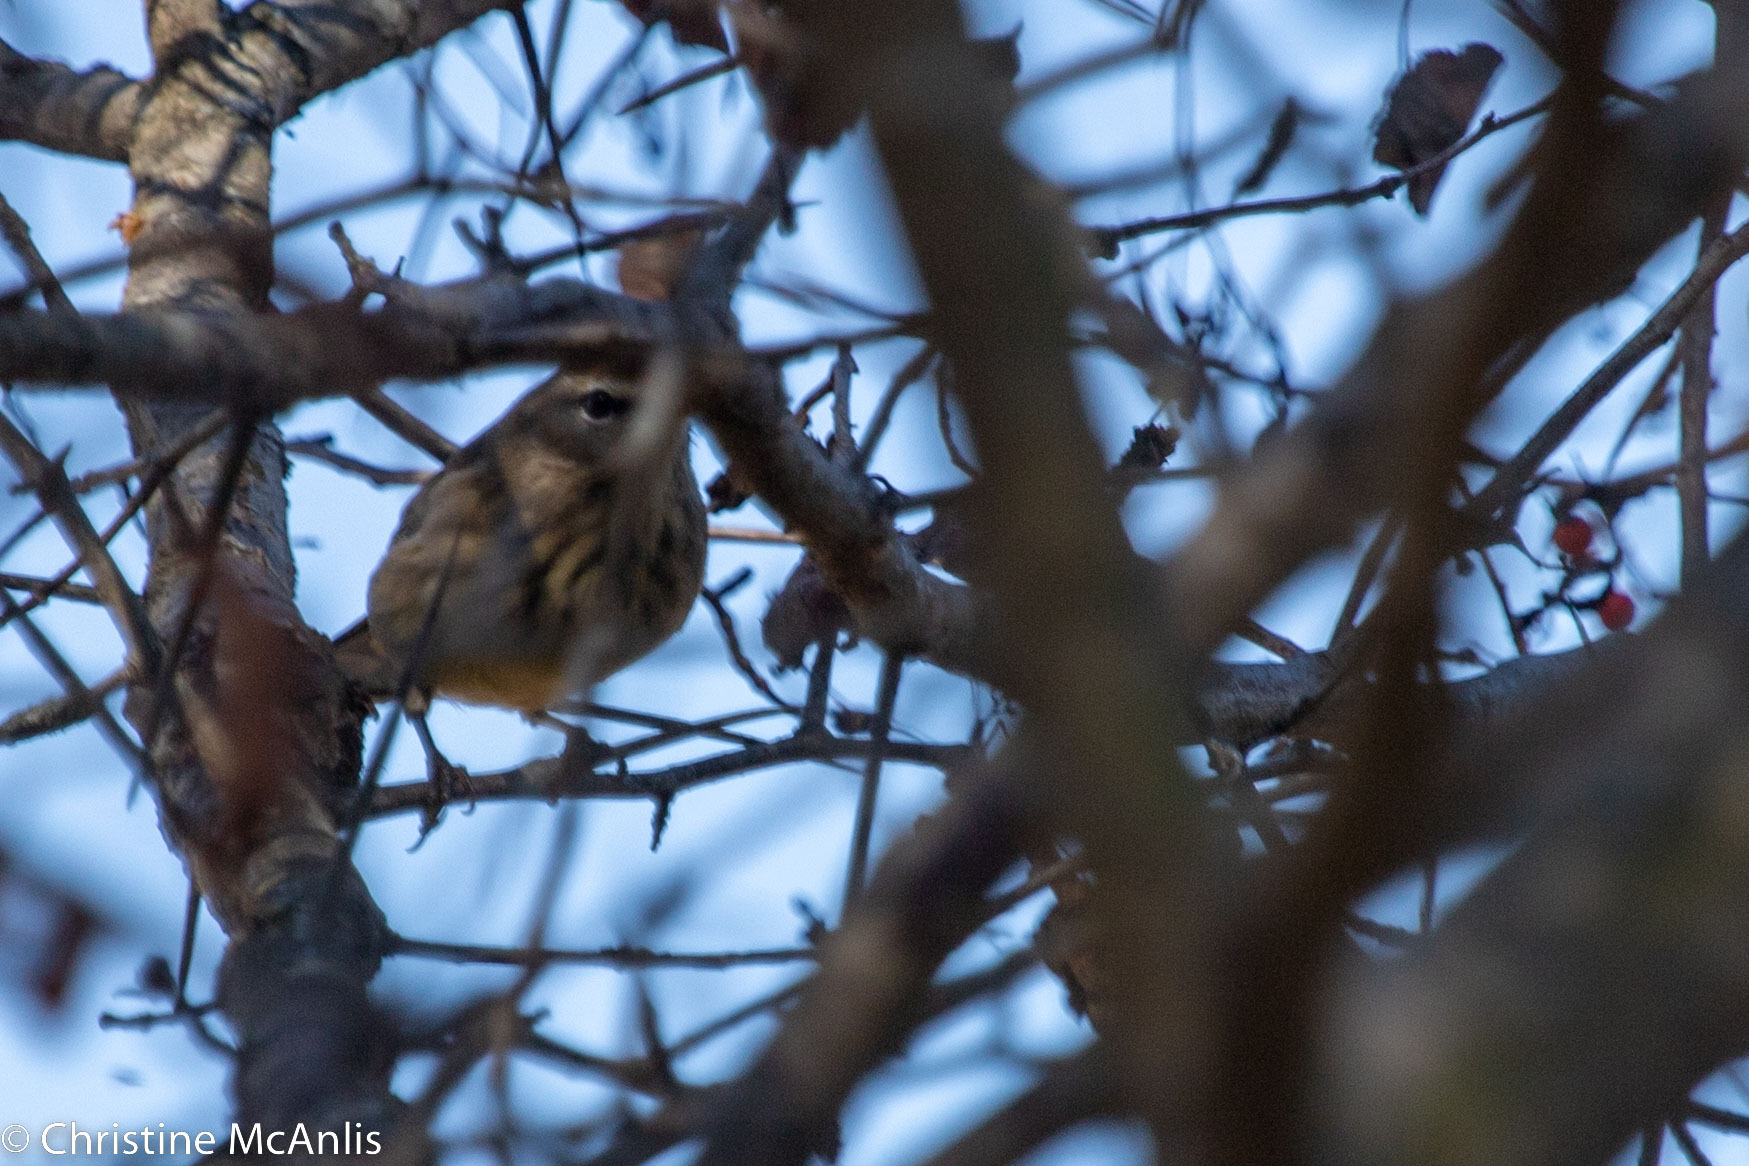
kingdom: Animalia
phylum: Chordata
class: Aves
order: Passeriformes
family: Parulidae
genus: Setophaga
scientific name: Setophaga palmarum
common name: Palm warbler
